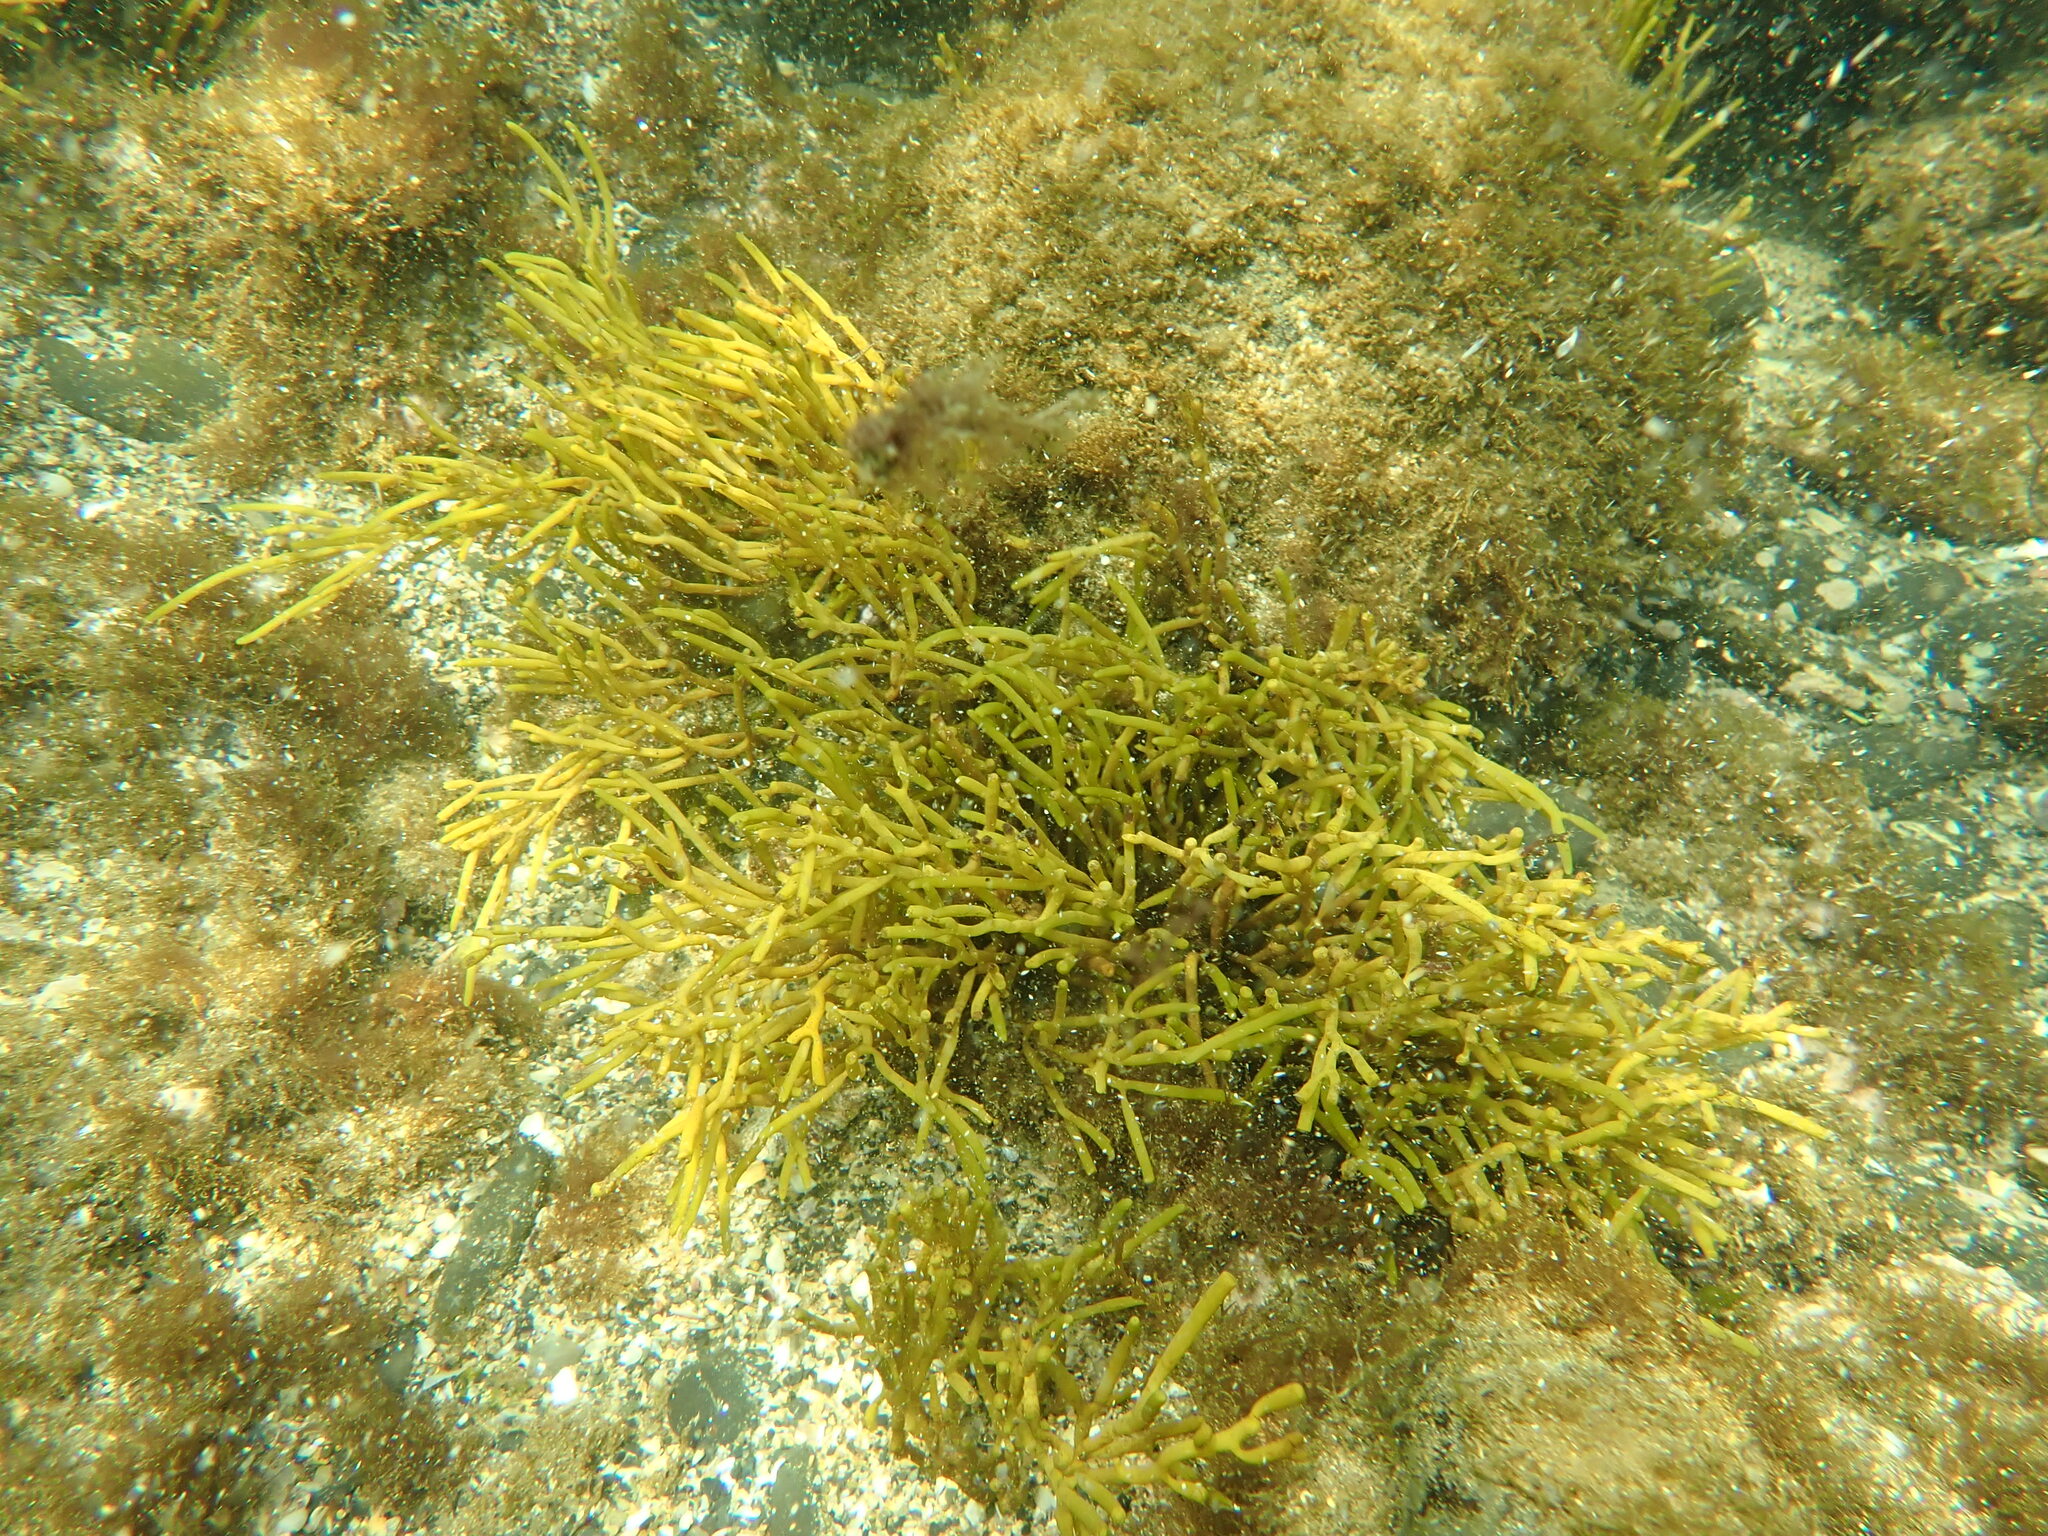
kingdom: Chromista
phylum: Ochrophyta
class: Phaeophyceae
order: Fucales
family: Sargassaceae
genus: Bifurcaria
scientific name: Bifurcaria bifurcata
